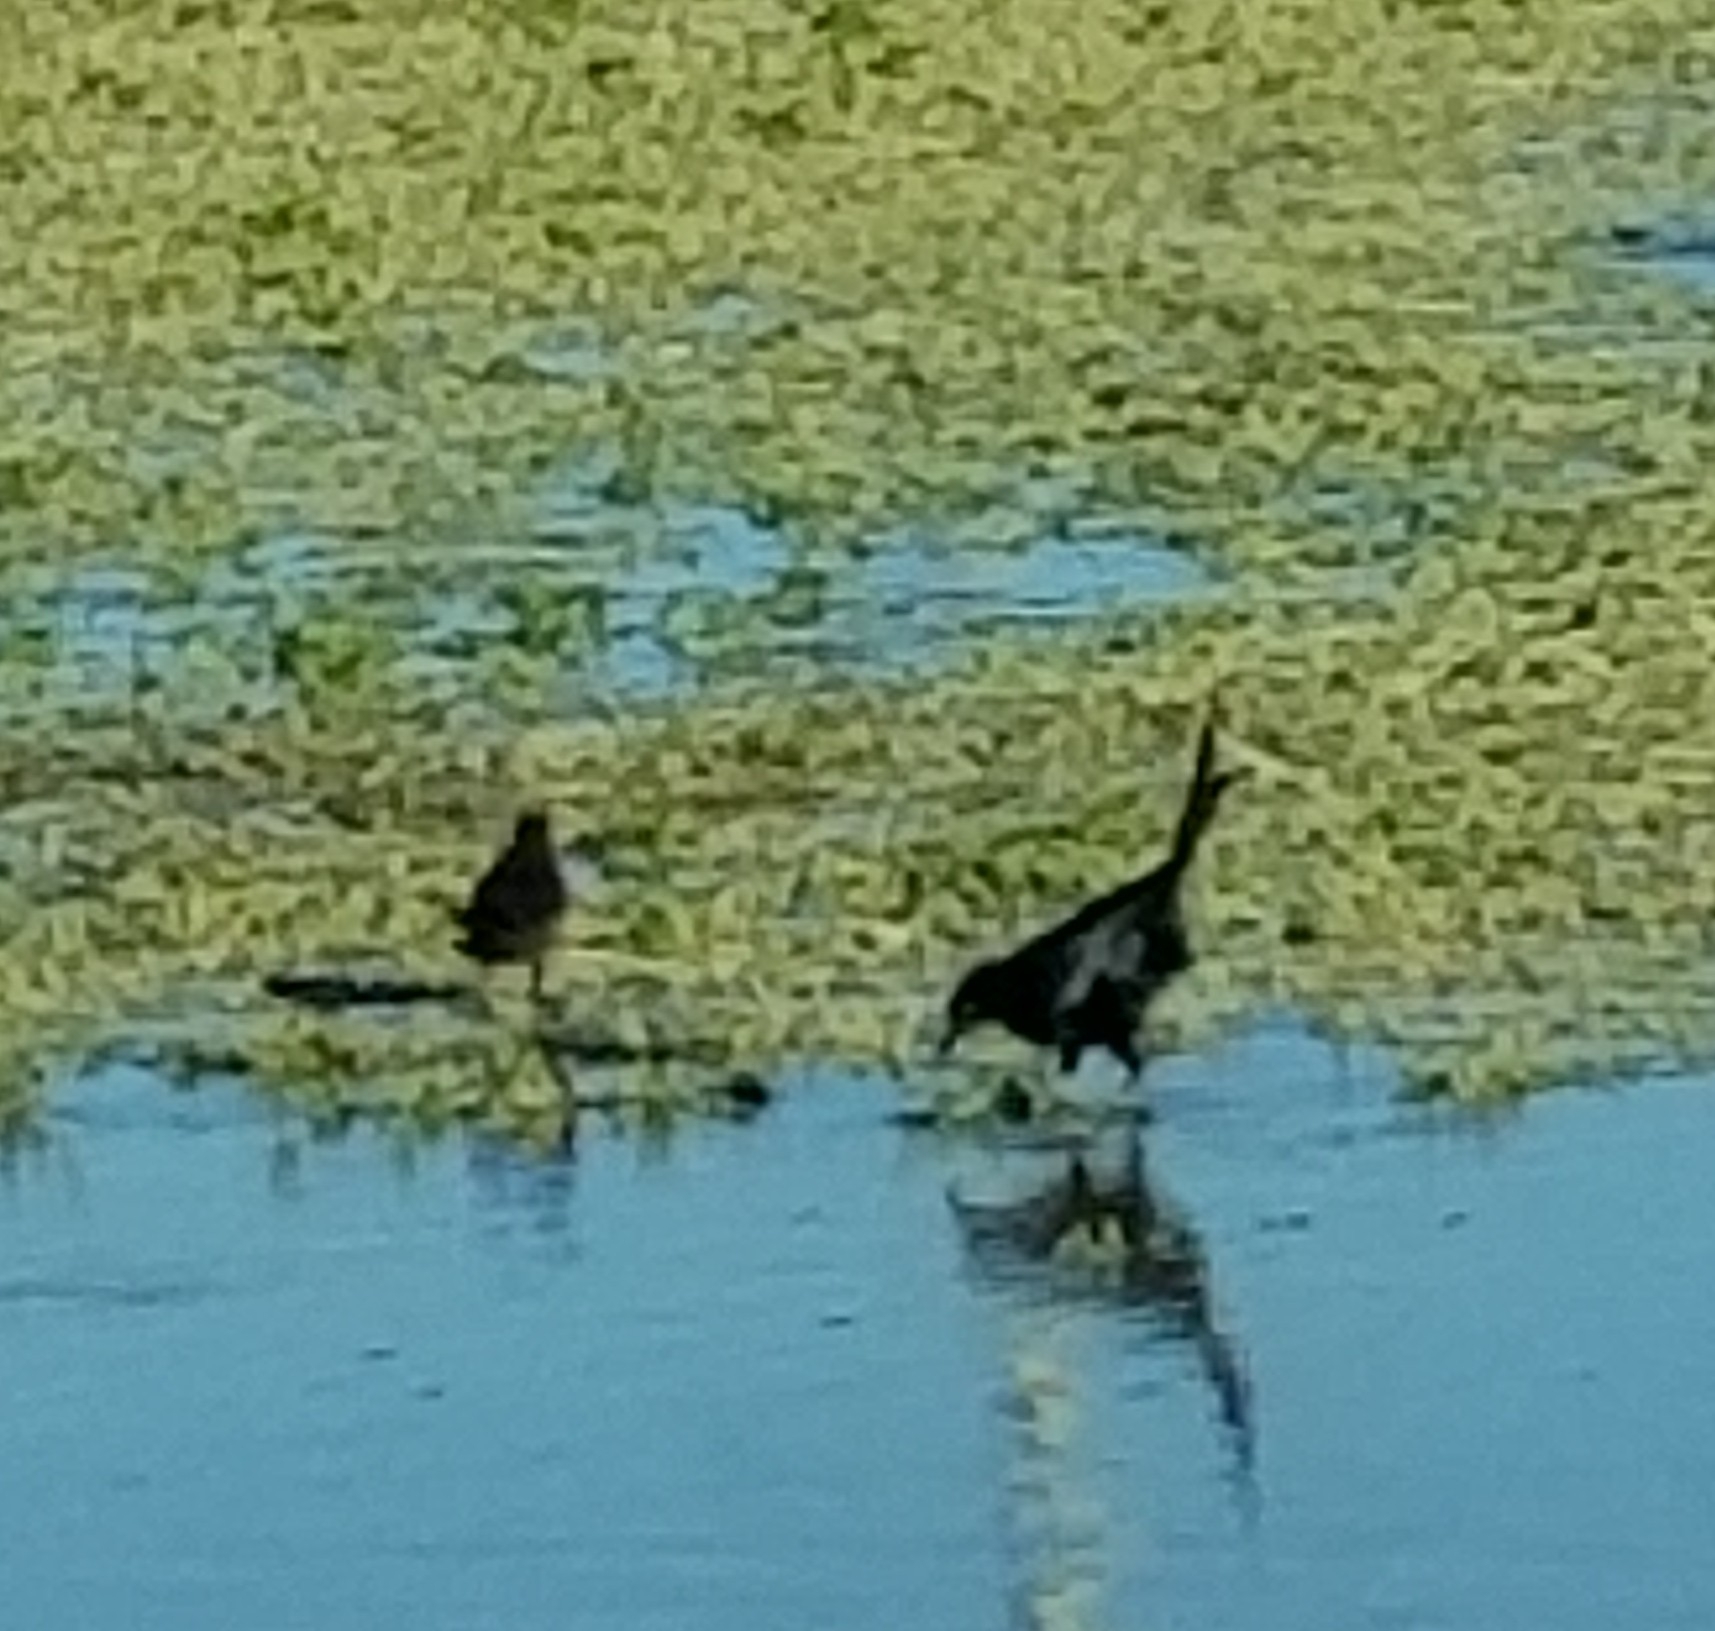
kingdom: Animalia
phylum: Chordata
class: Aves
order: Passeriformes
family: Icteridae
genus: Quiscalus
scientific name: Quiscalus mexicanus
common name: Great-tailed grackle
